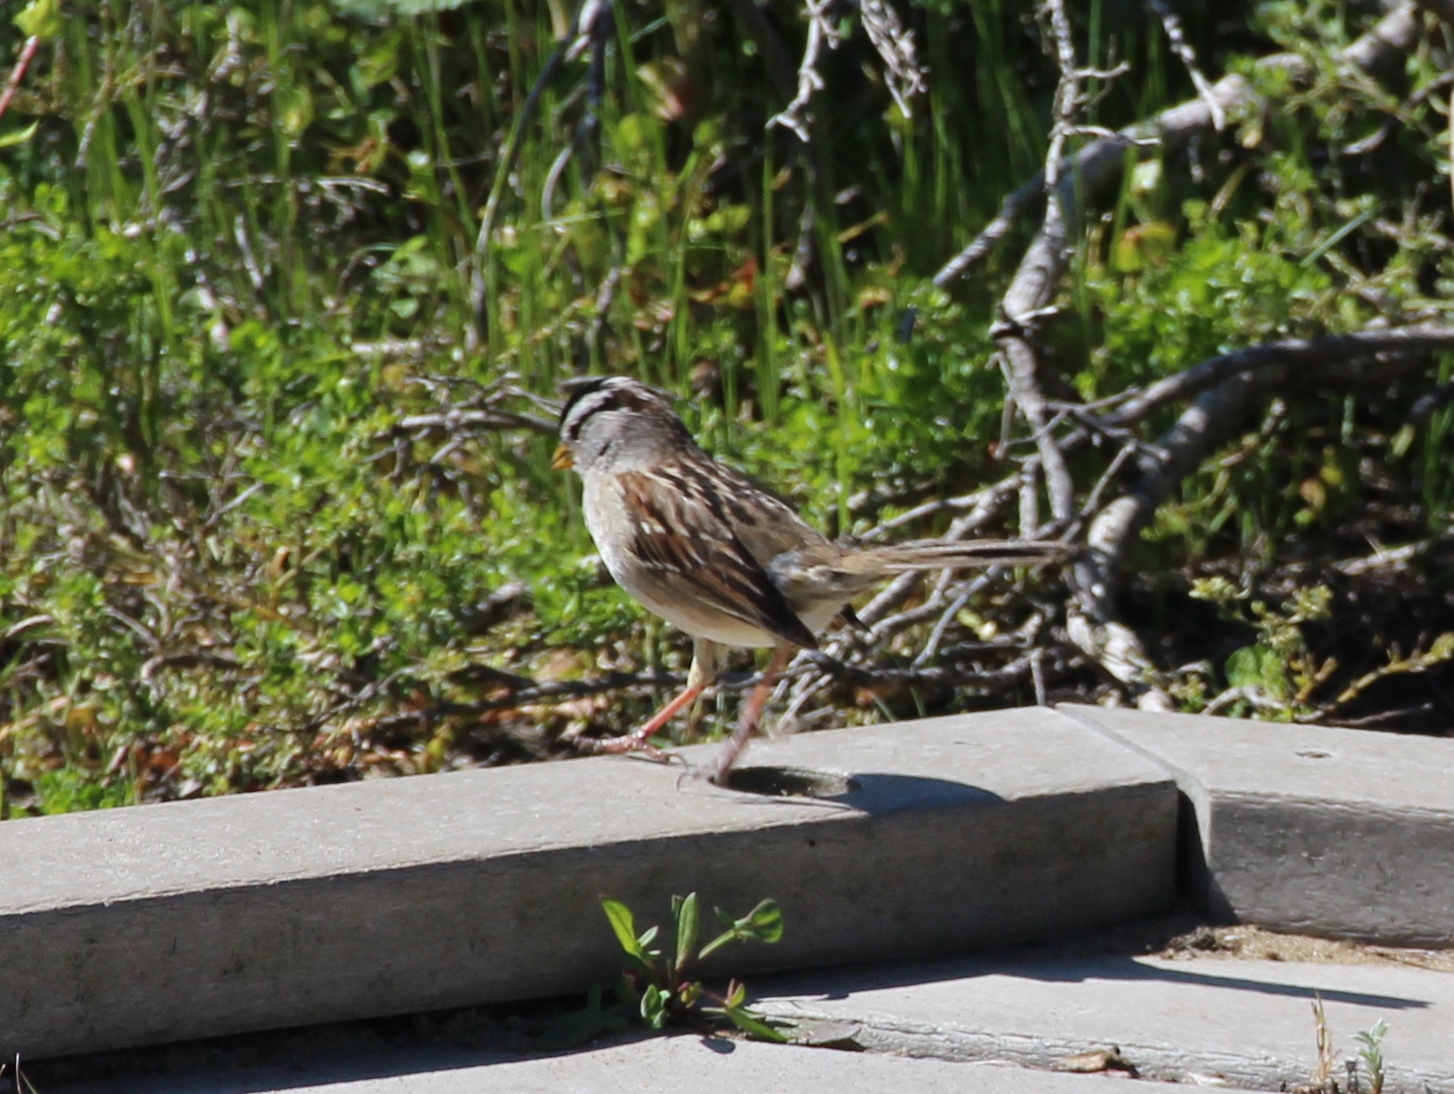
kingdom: Animalia
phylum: Chordata
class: Aves
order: Passeriformes
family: Passerellidae
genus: Zonotrichia
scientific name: Zonotrichia leucophrys
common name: White-crowned sparrow
